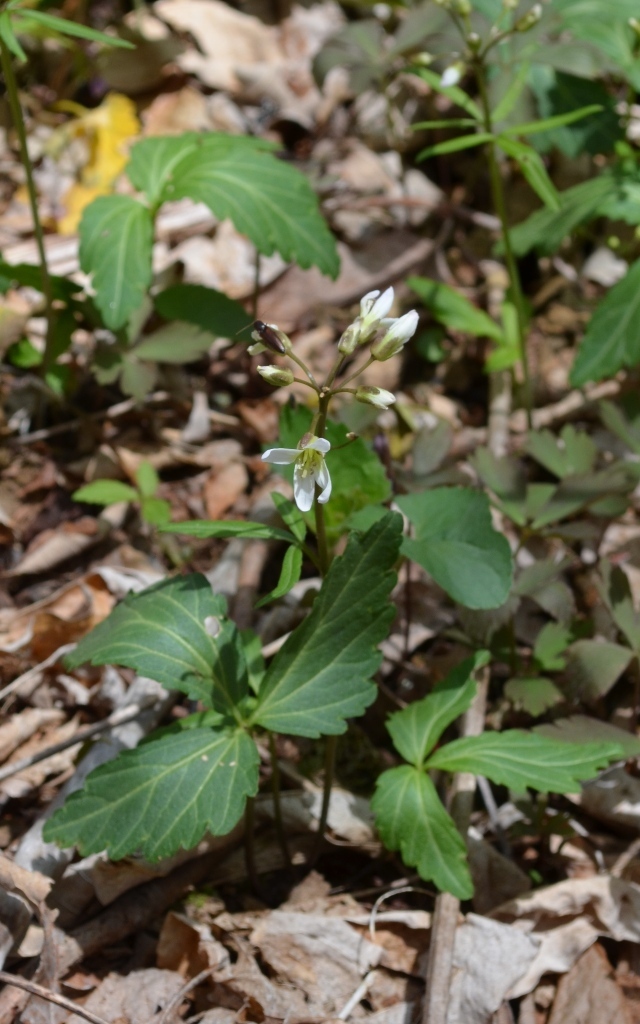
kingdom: Plantae
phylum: Tracheophyta
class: Magnoliopsida
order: Brassicales
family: Brassicaceae
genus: Cardamine
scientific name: Cardamine diphylla
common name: Broad-leaved toothwort
